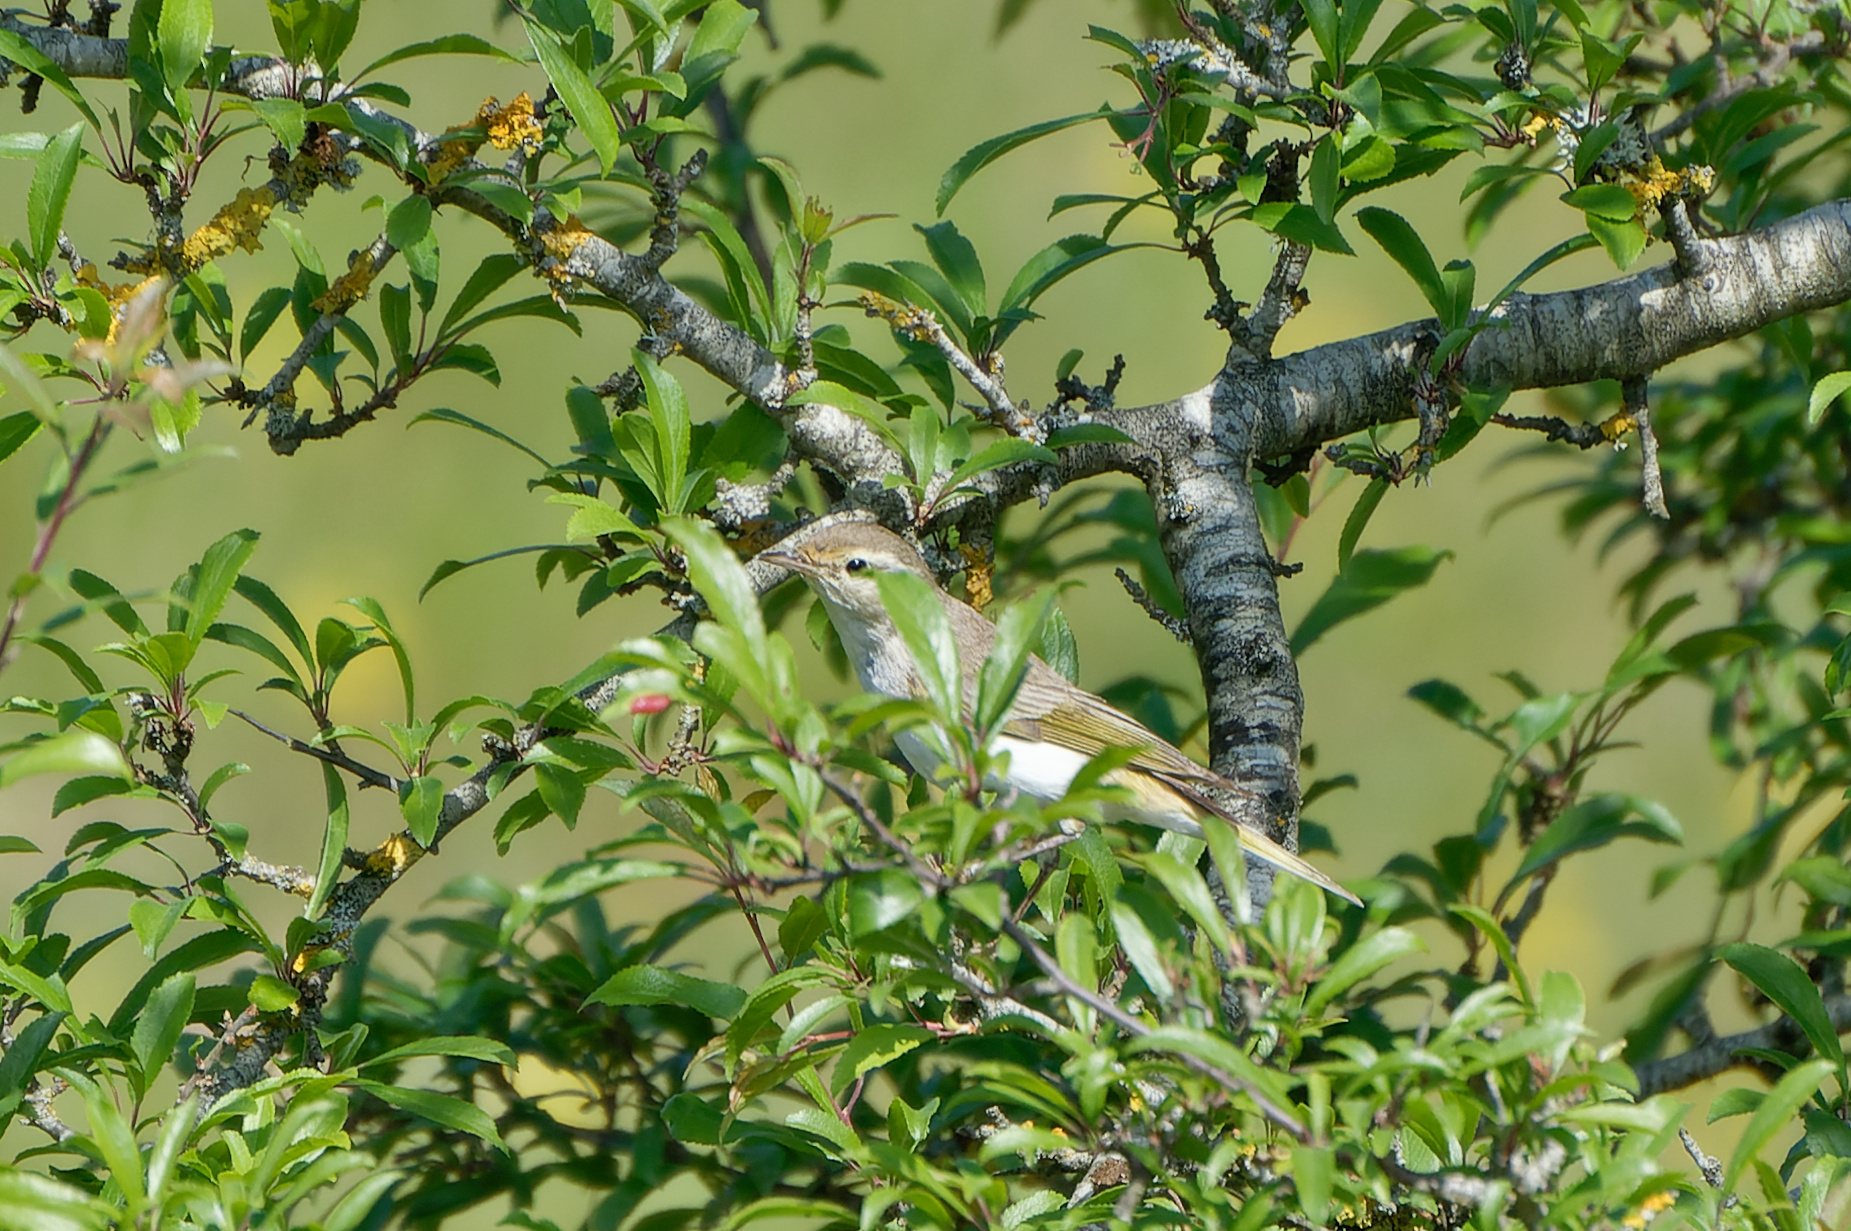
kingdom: Animalia
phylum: Chordata
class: Aves
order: Passeriformes
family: Phylloscopidae
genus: Phylloscopus
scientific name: Phylloscopus bonelli
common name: Western bonelli's warbler
